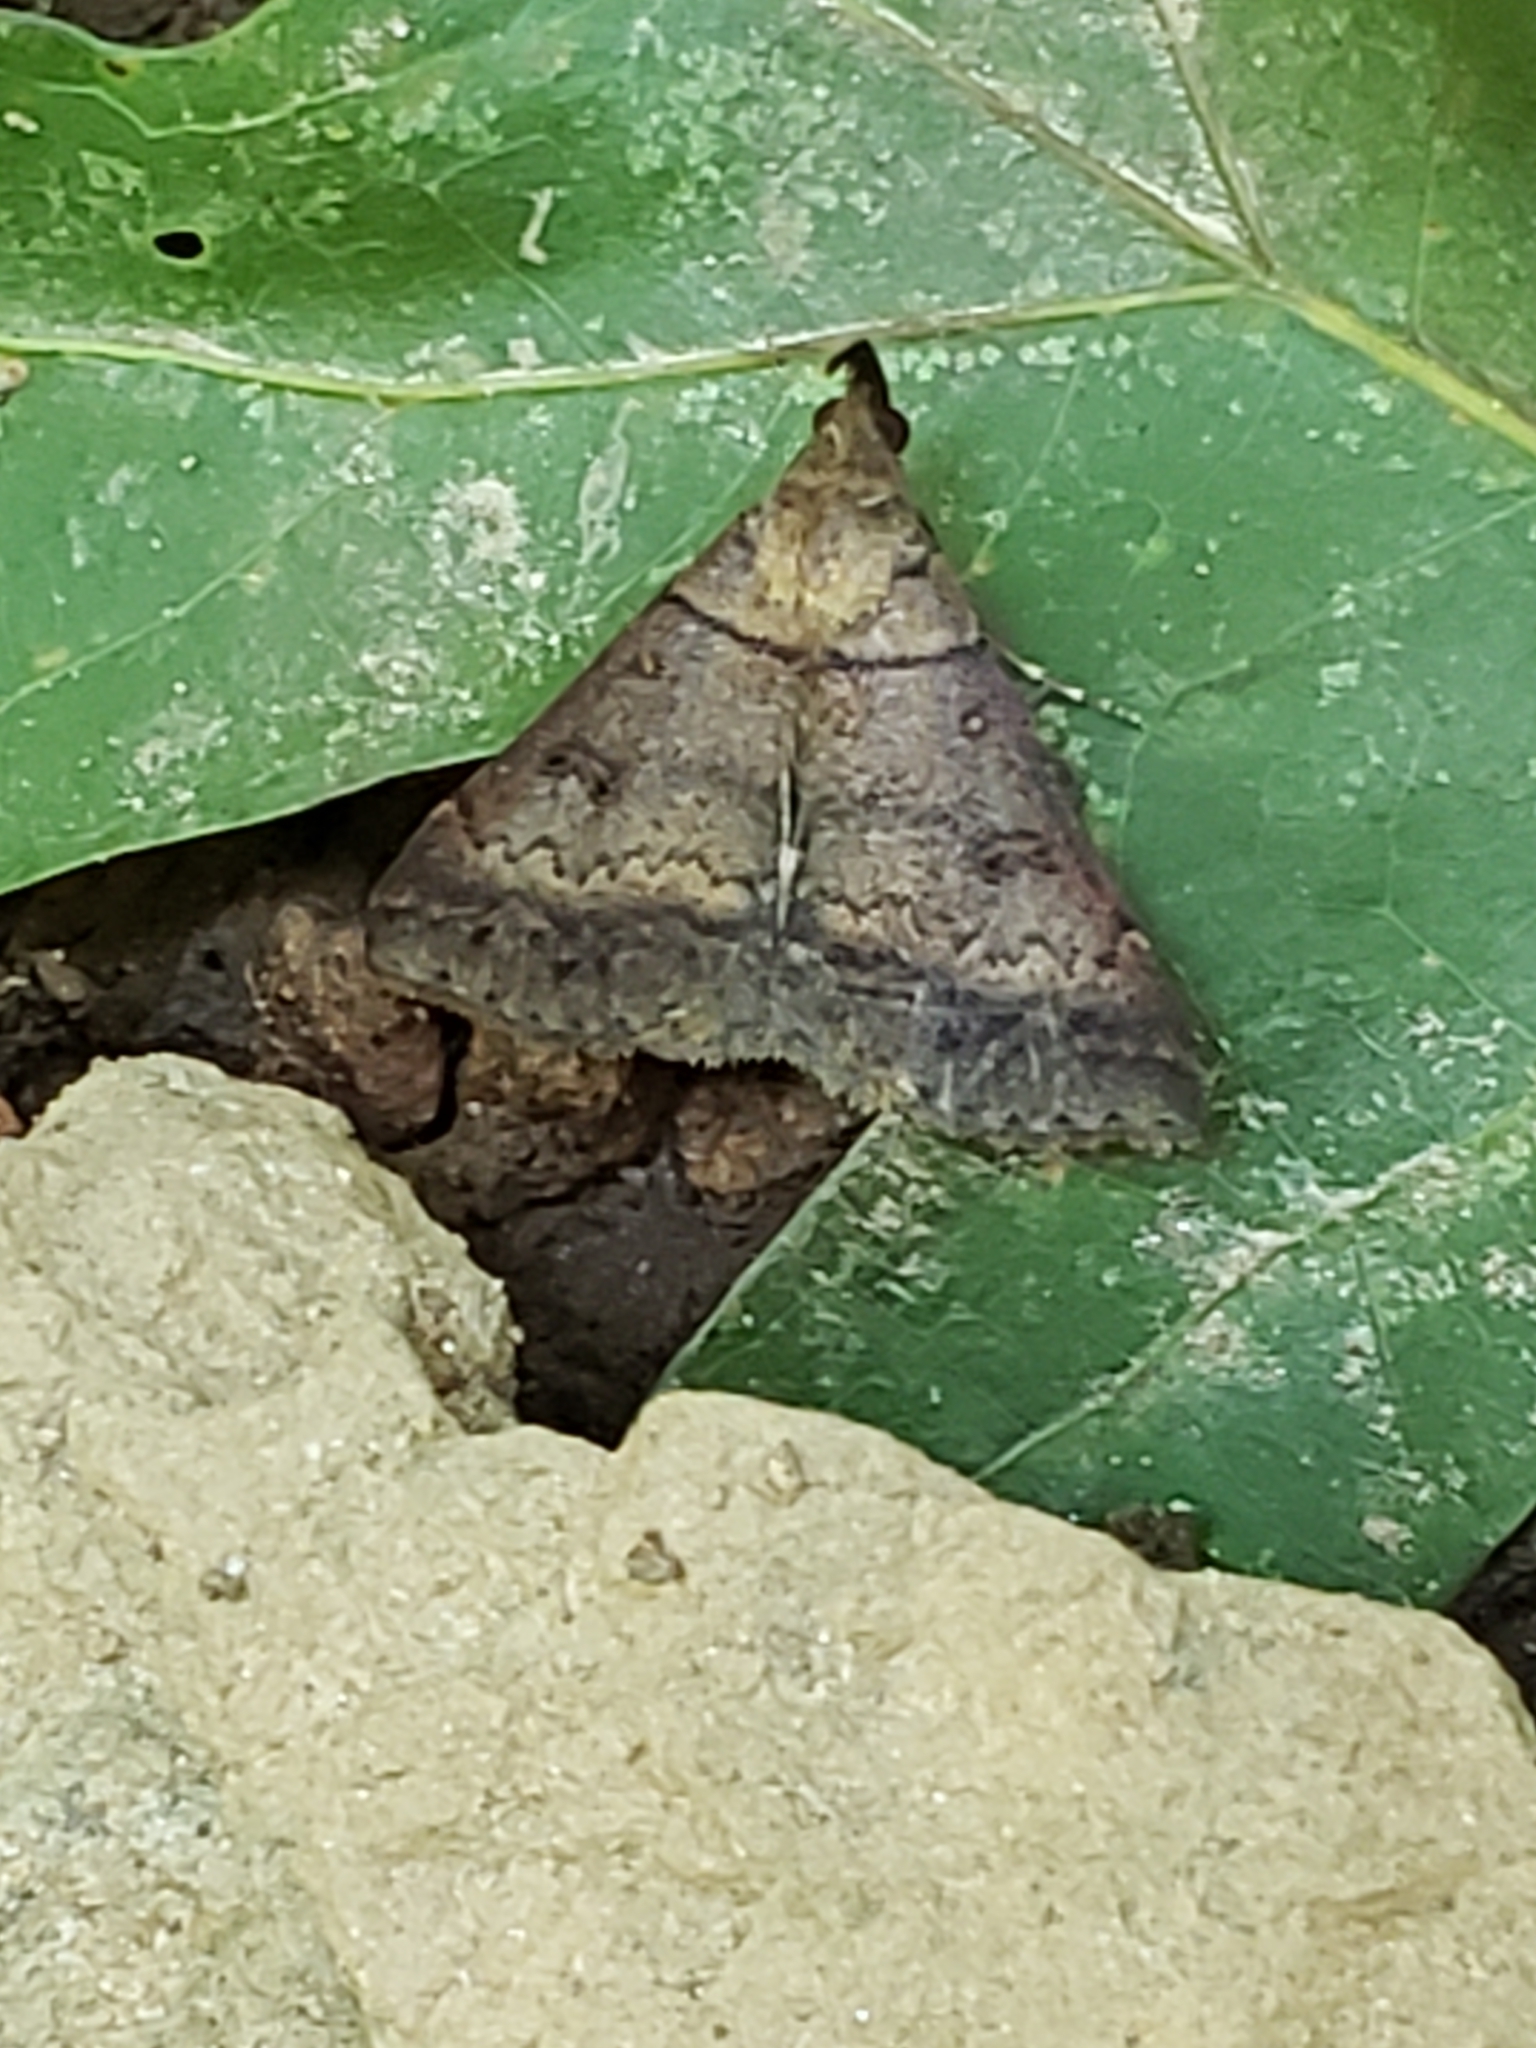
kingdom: Animalia
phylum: Arthropoda
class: Insecta
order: Lepidoptera
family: Erebidae
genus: Renia
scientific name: Renia nemoralis
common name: Chocolate renia moth
